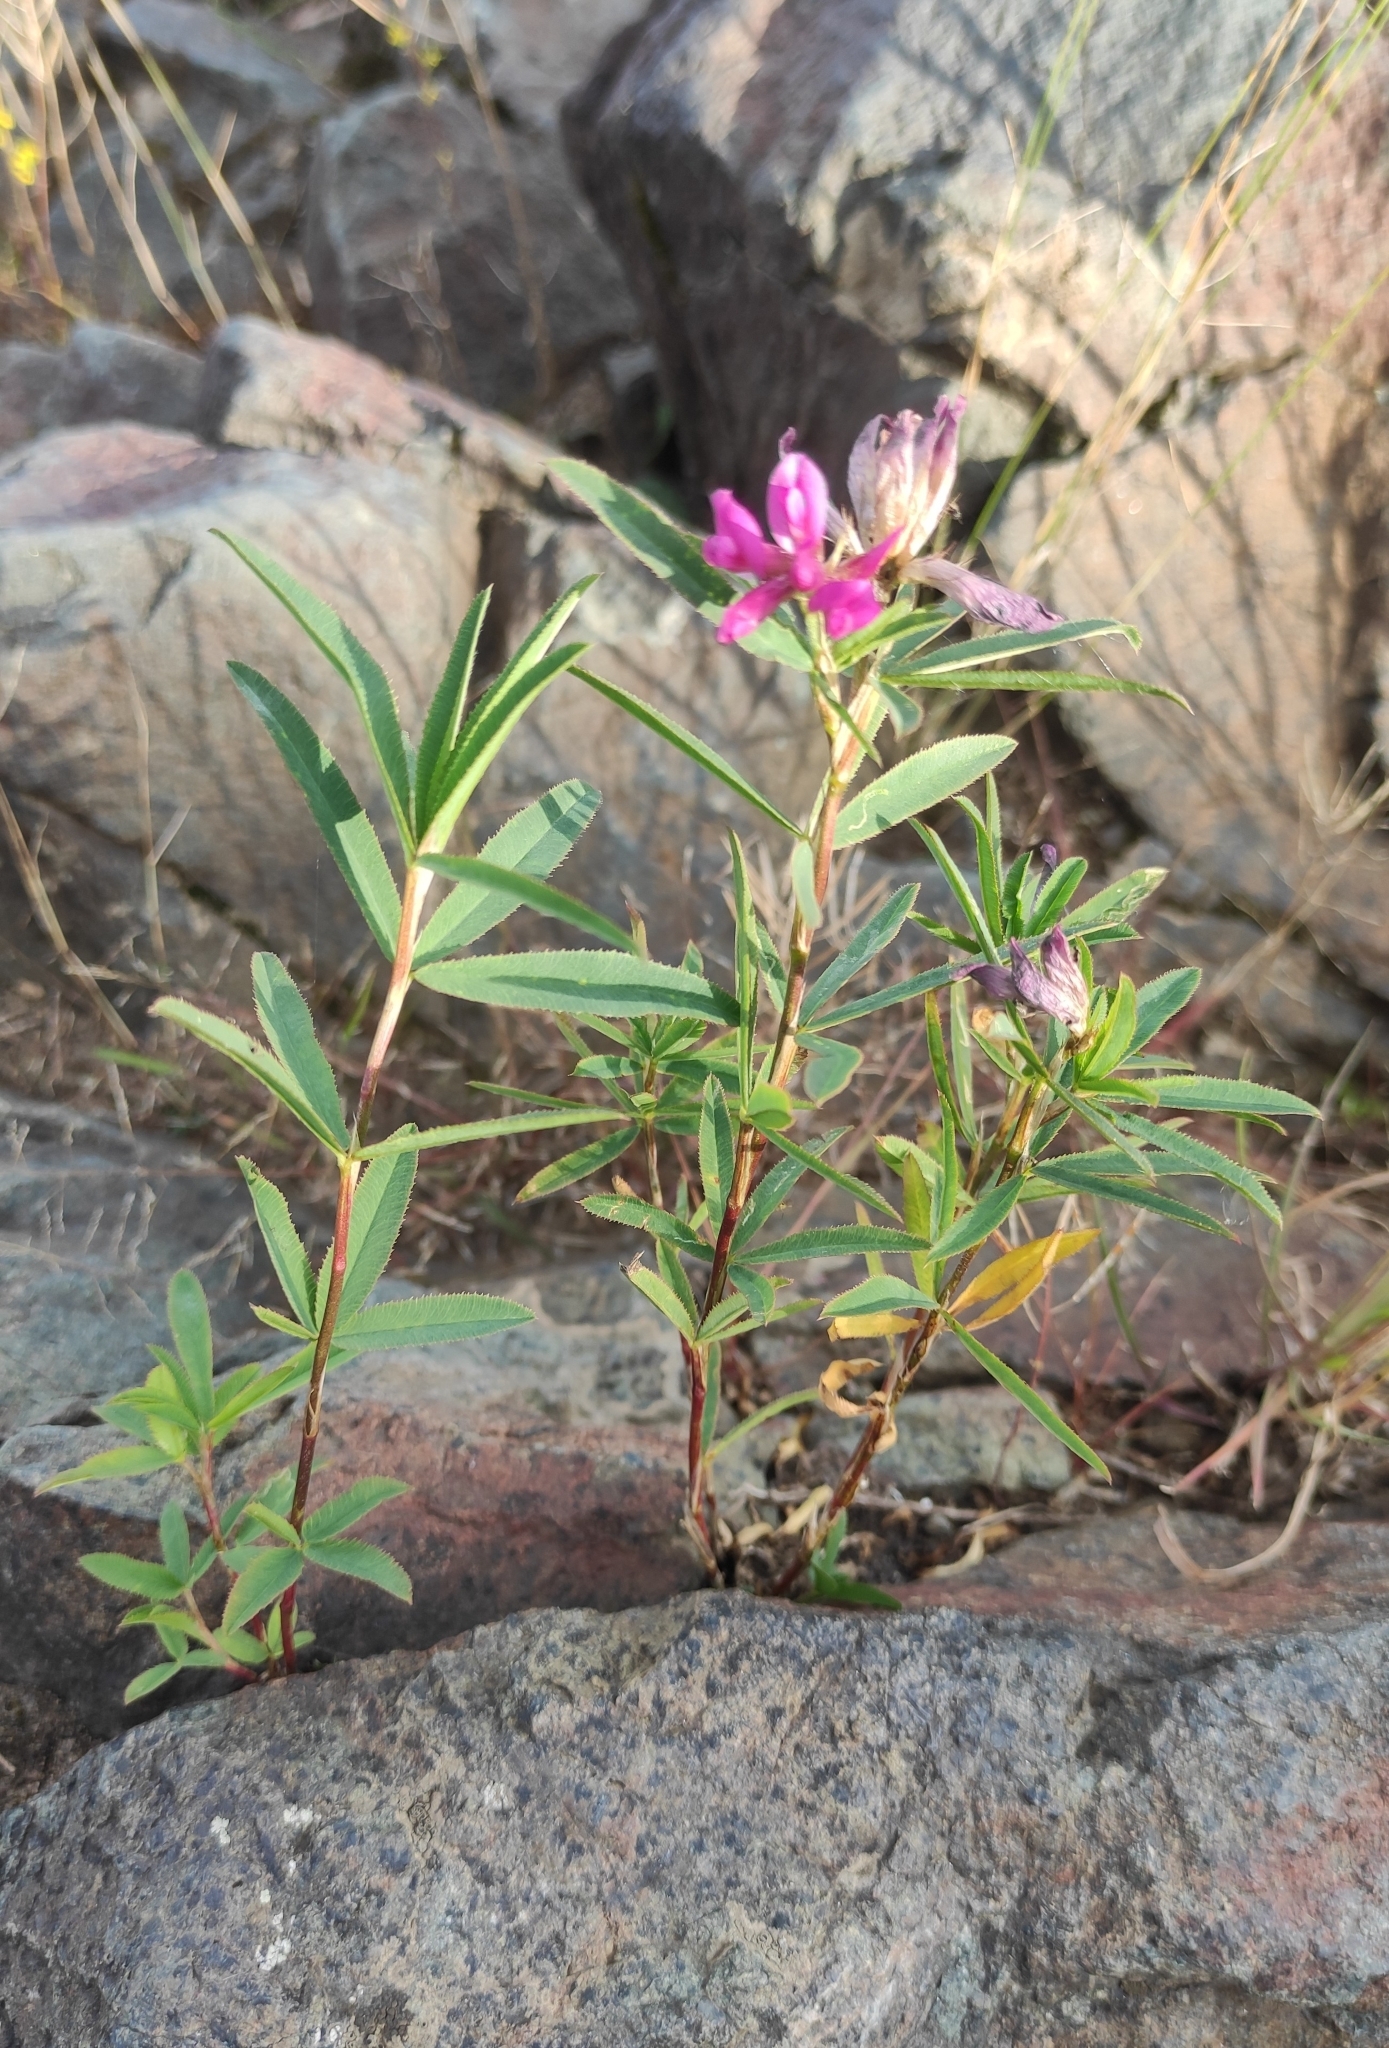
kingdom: Plantae
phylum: Tracheophyta
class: Magnoliopsida
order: Fabales
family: Fabaceae
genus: Trifolium
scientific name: Trifolium lupinaster
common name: Lupine clover
